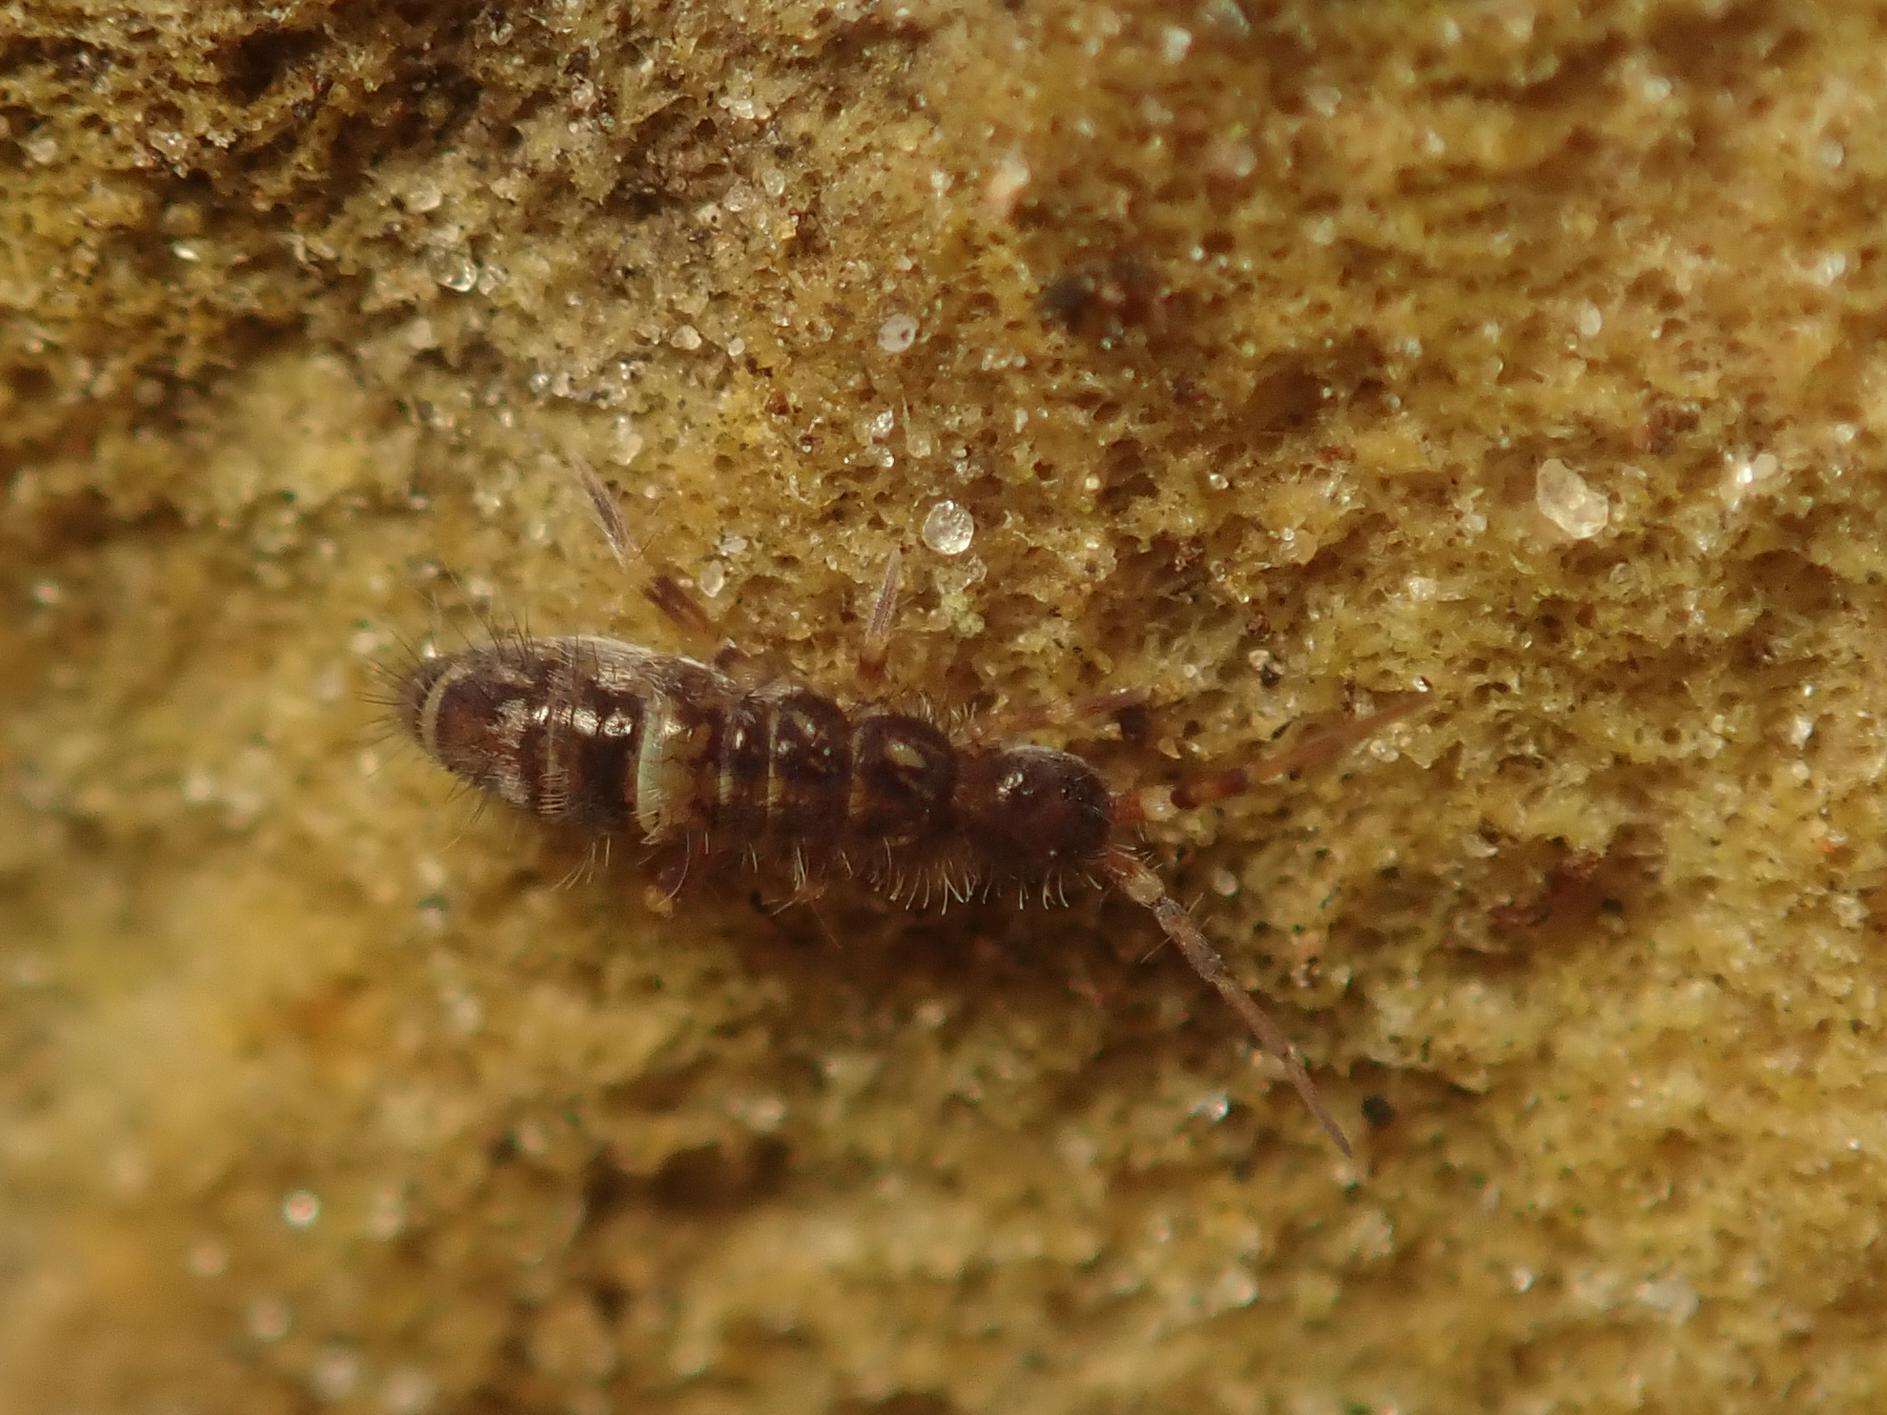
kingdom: Animalia
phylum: Arthropoda
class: Collembola
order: Entomobryomorpha
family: Orchesellidae
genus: Orchesella
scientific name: Orchesella cincta
